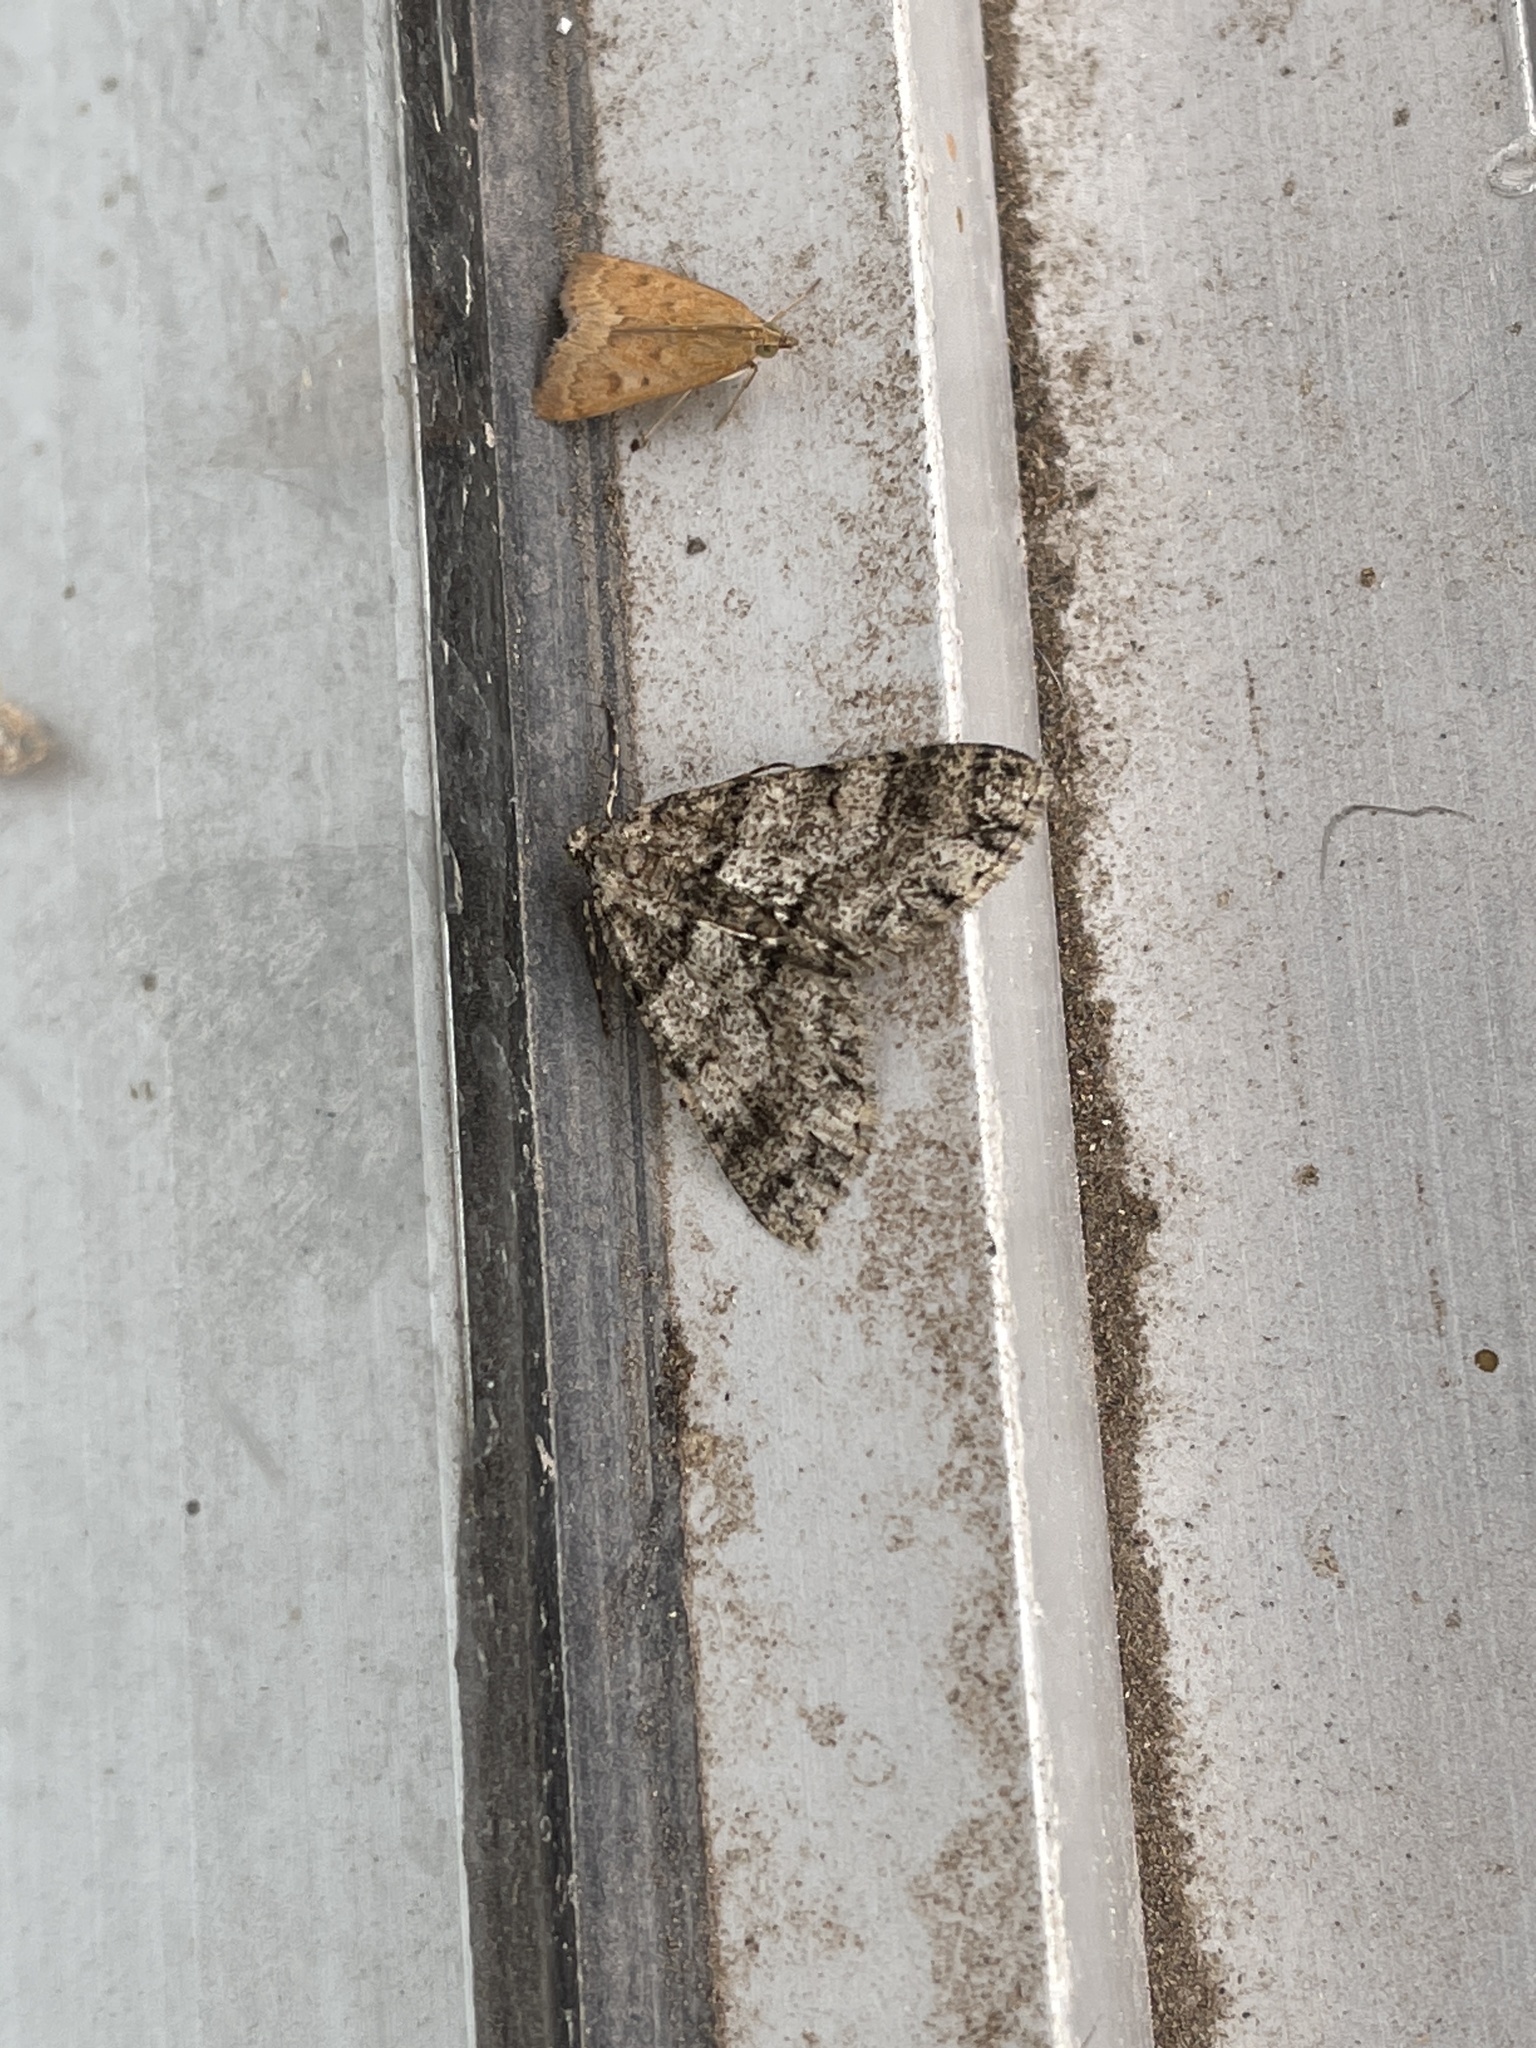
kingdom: Animalia
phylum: Arthropoda
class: Insecta
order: Lepidoptera
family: Crambidae
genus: Achyra
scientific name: Achyra rantalis
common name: Garden webworm
